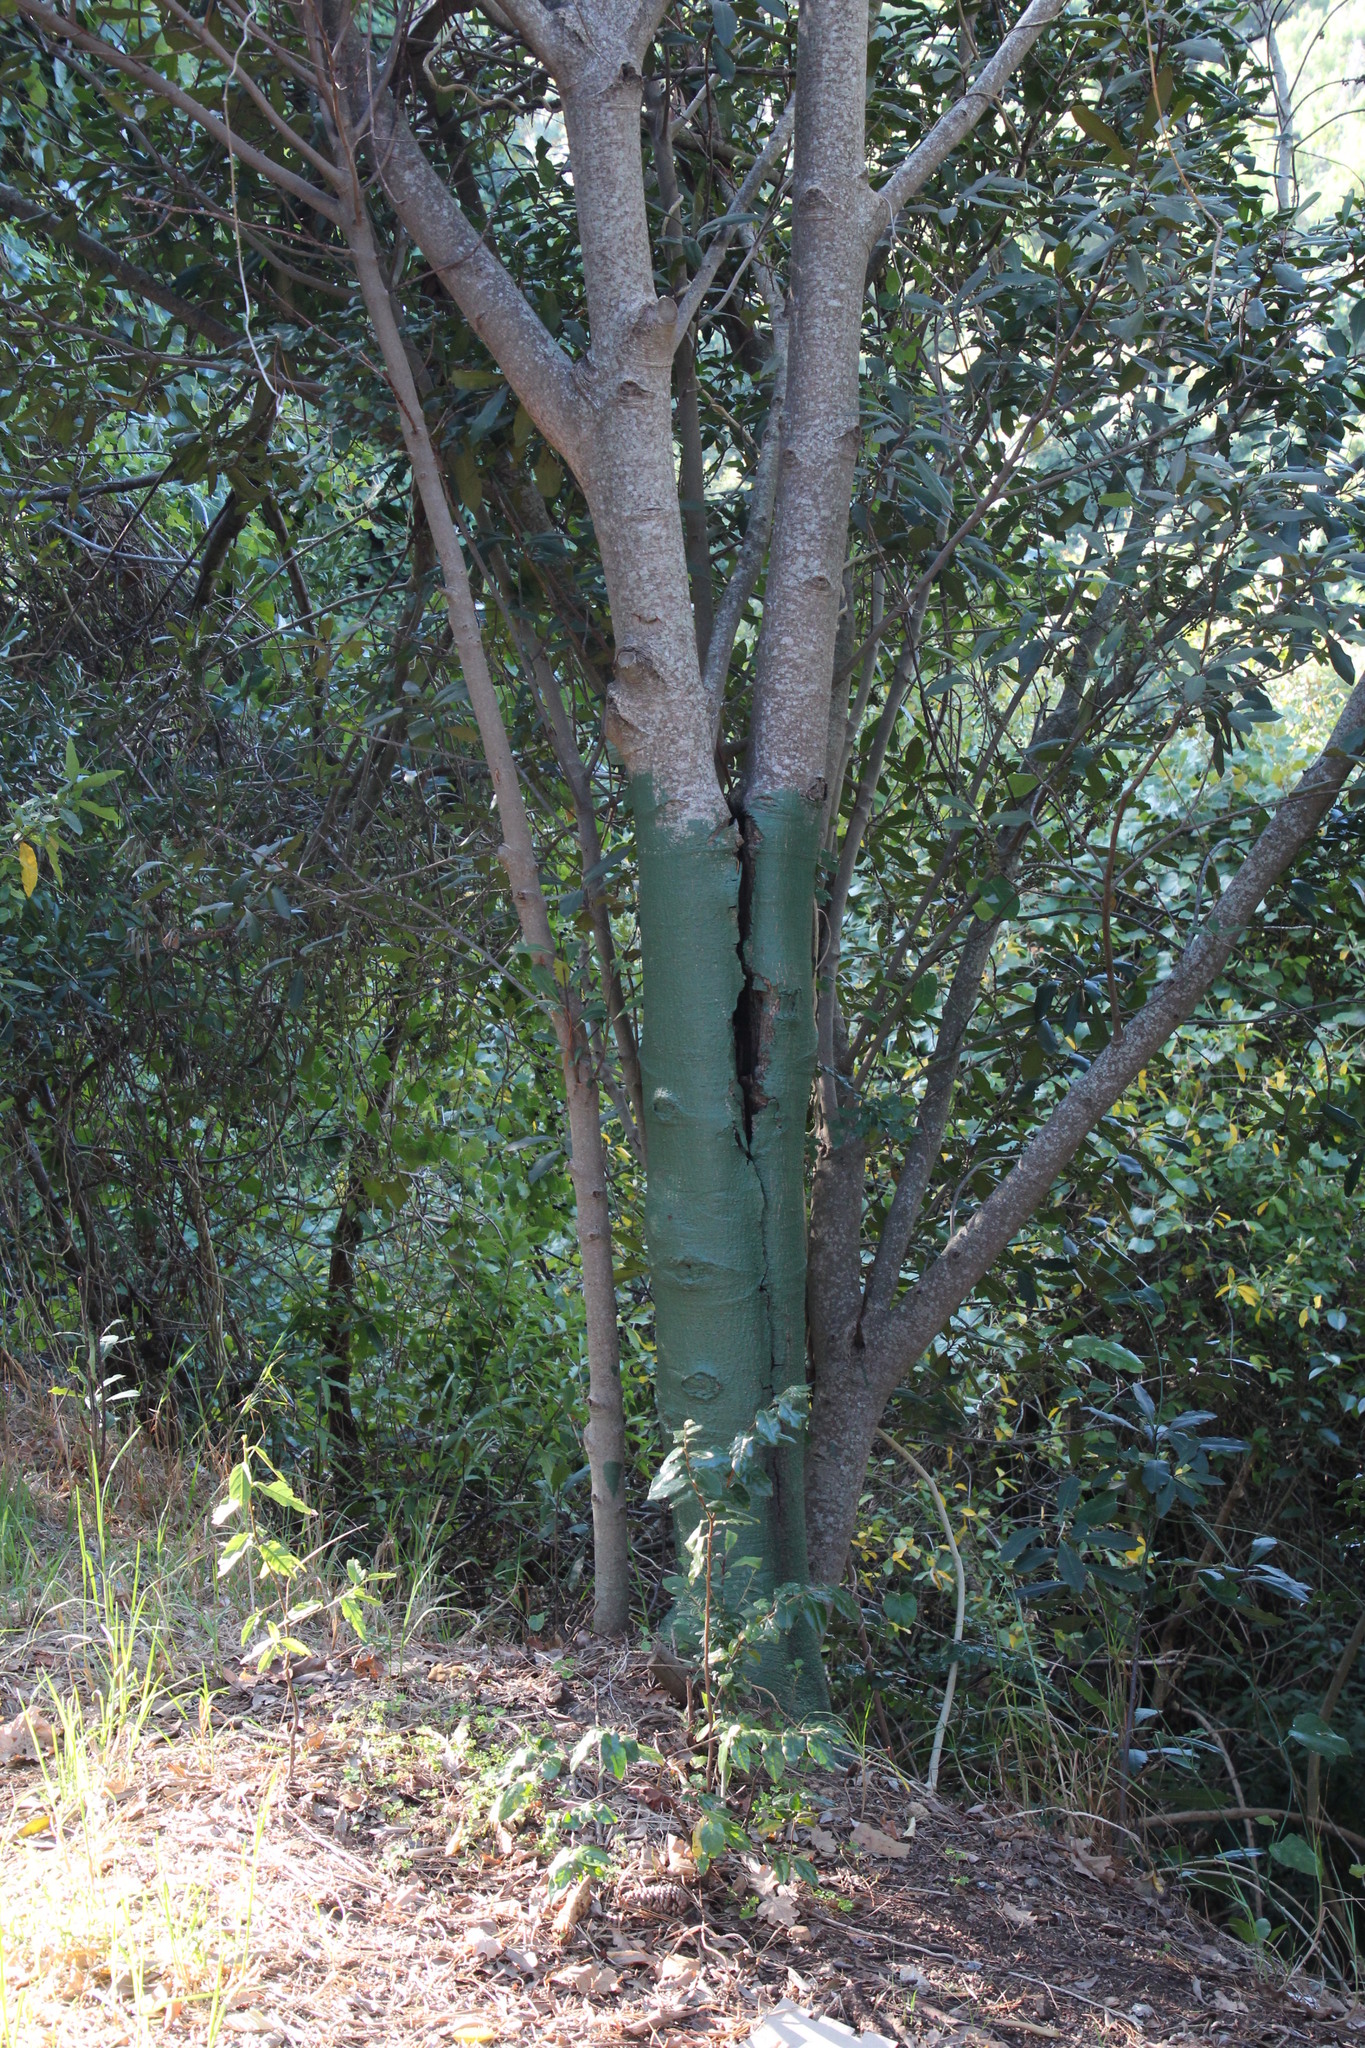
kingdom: Plantae
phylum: Tracheophyta
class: Magnoliopsida
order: Ericales
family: Primulaceae
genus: Myrsine
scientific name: Myrsine melanophloeos
